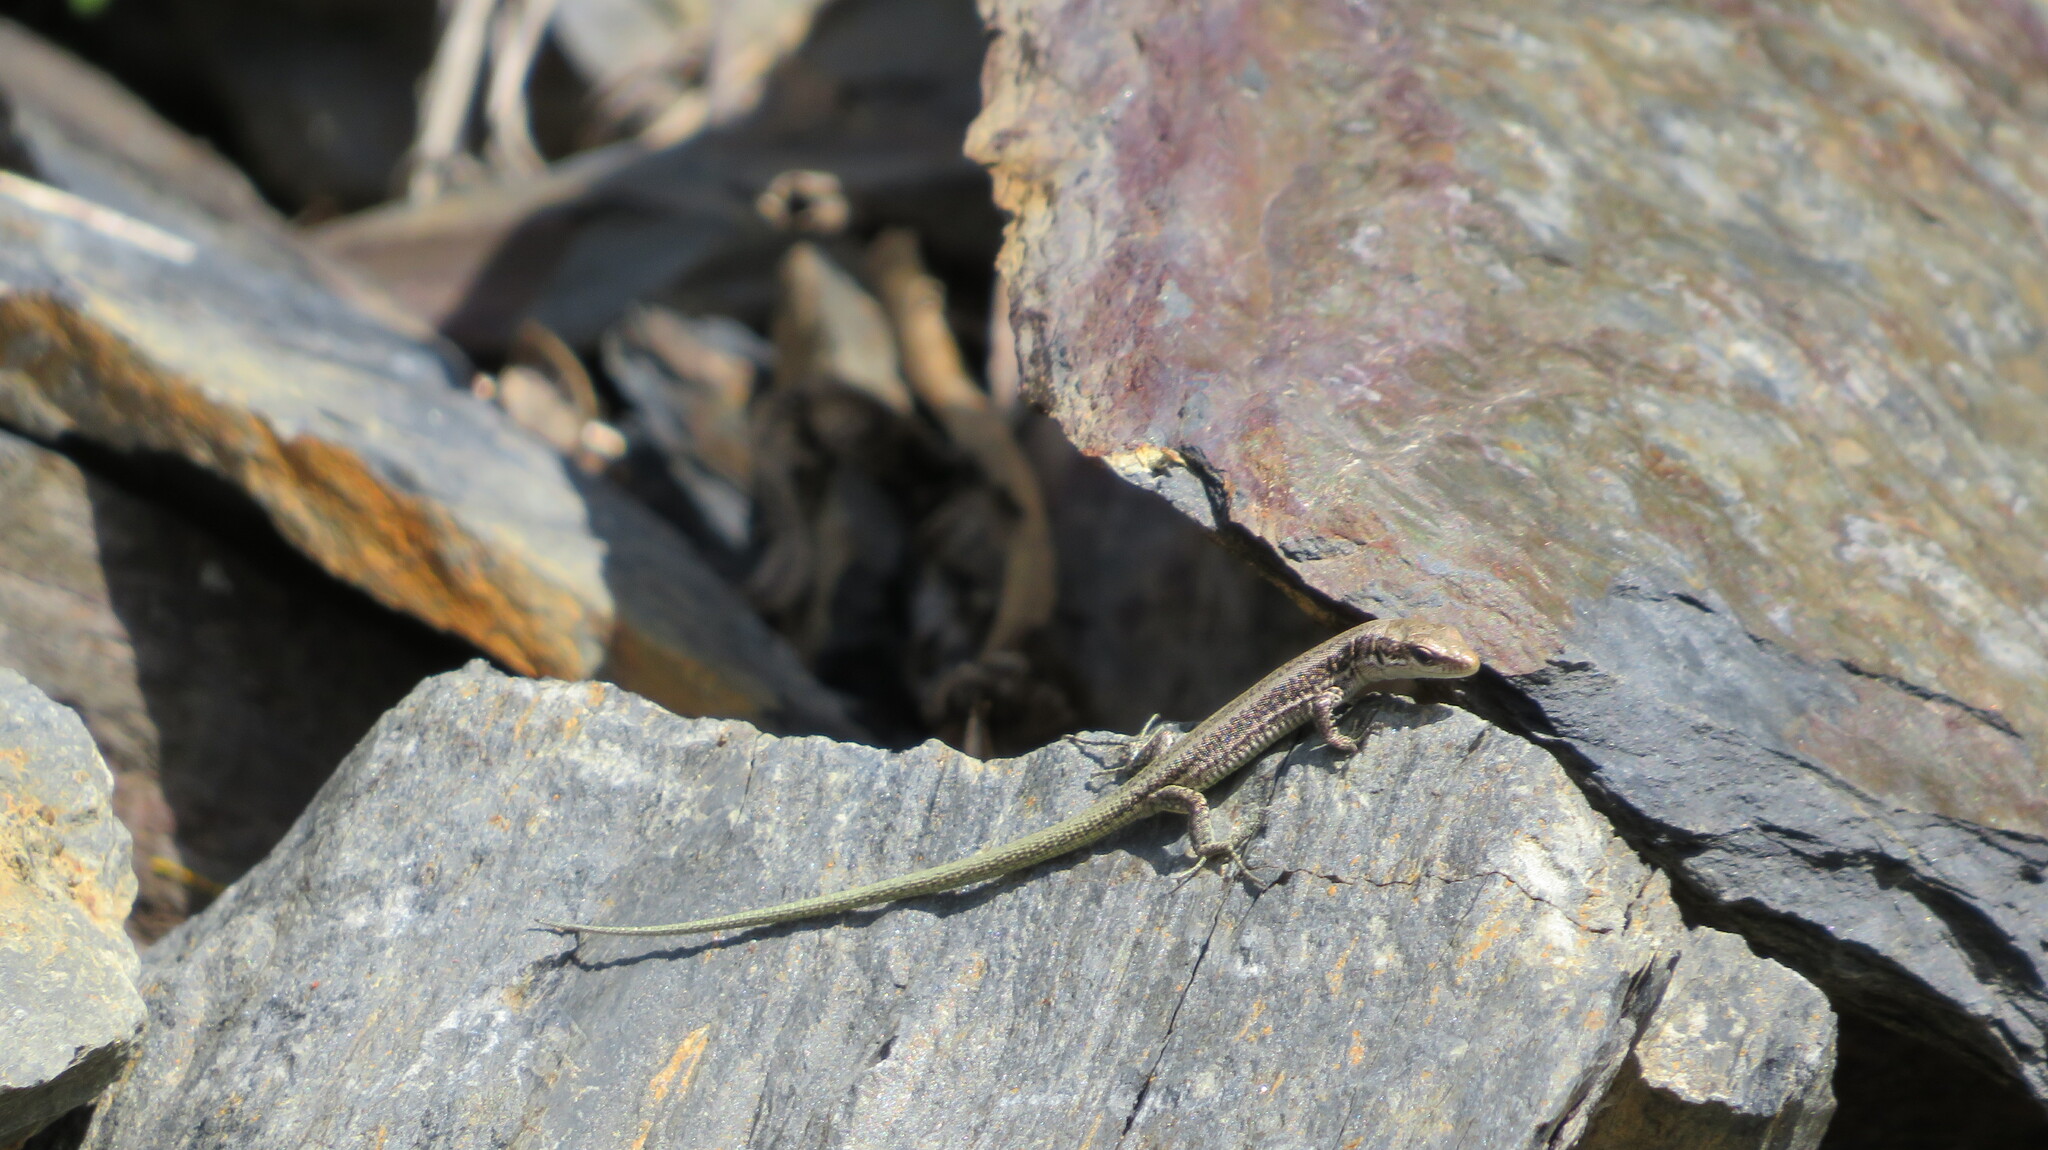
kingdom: Animalia
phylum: Chordata
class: Squamata
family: Lacertidae
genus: Darevskia
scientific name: Darevskia caucasica
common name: Caucasian llzard
